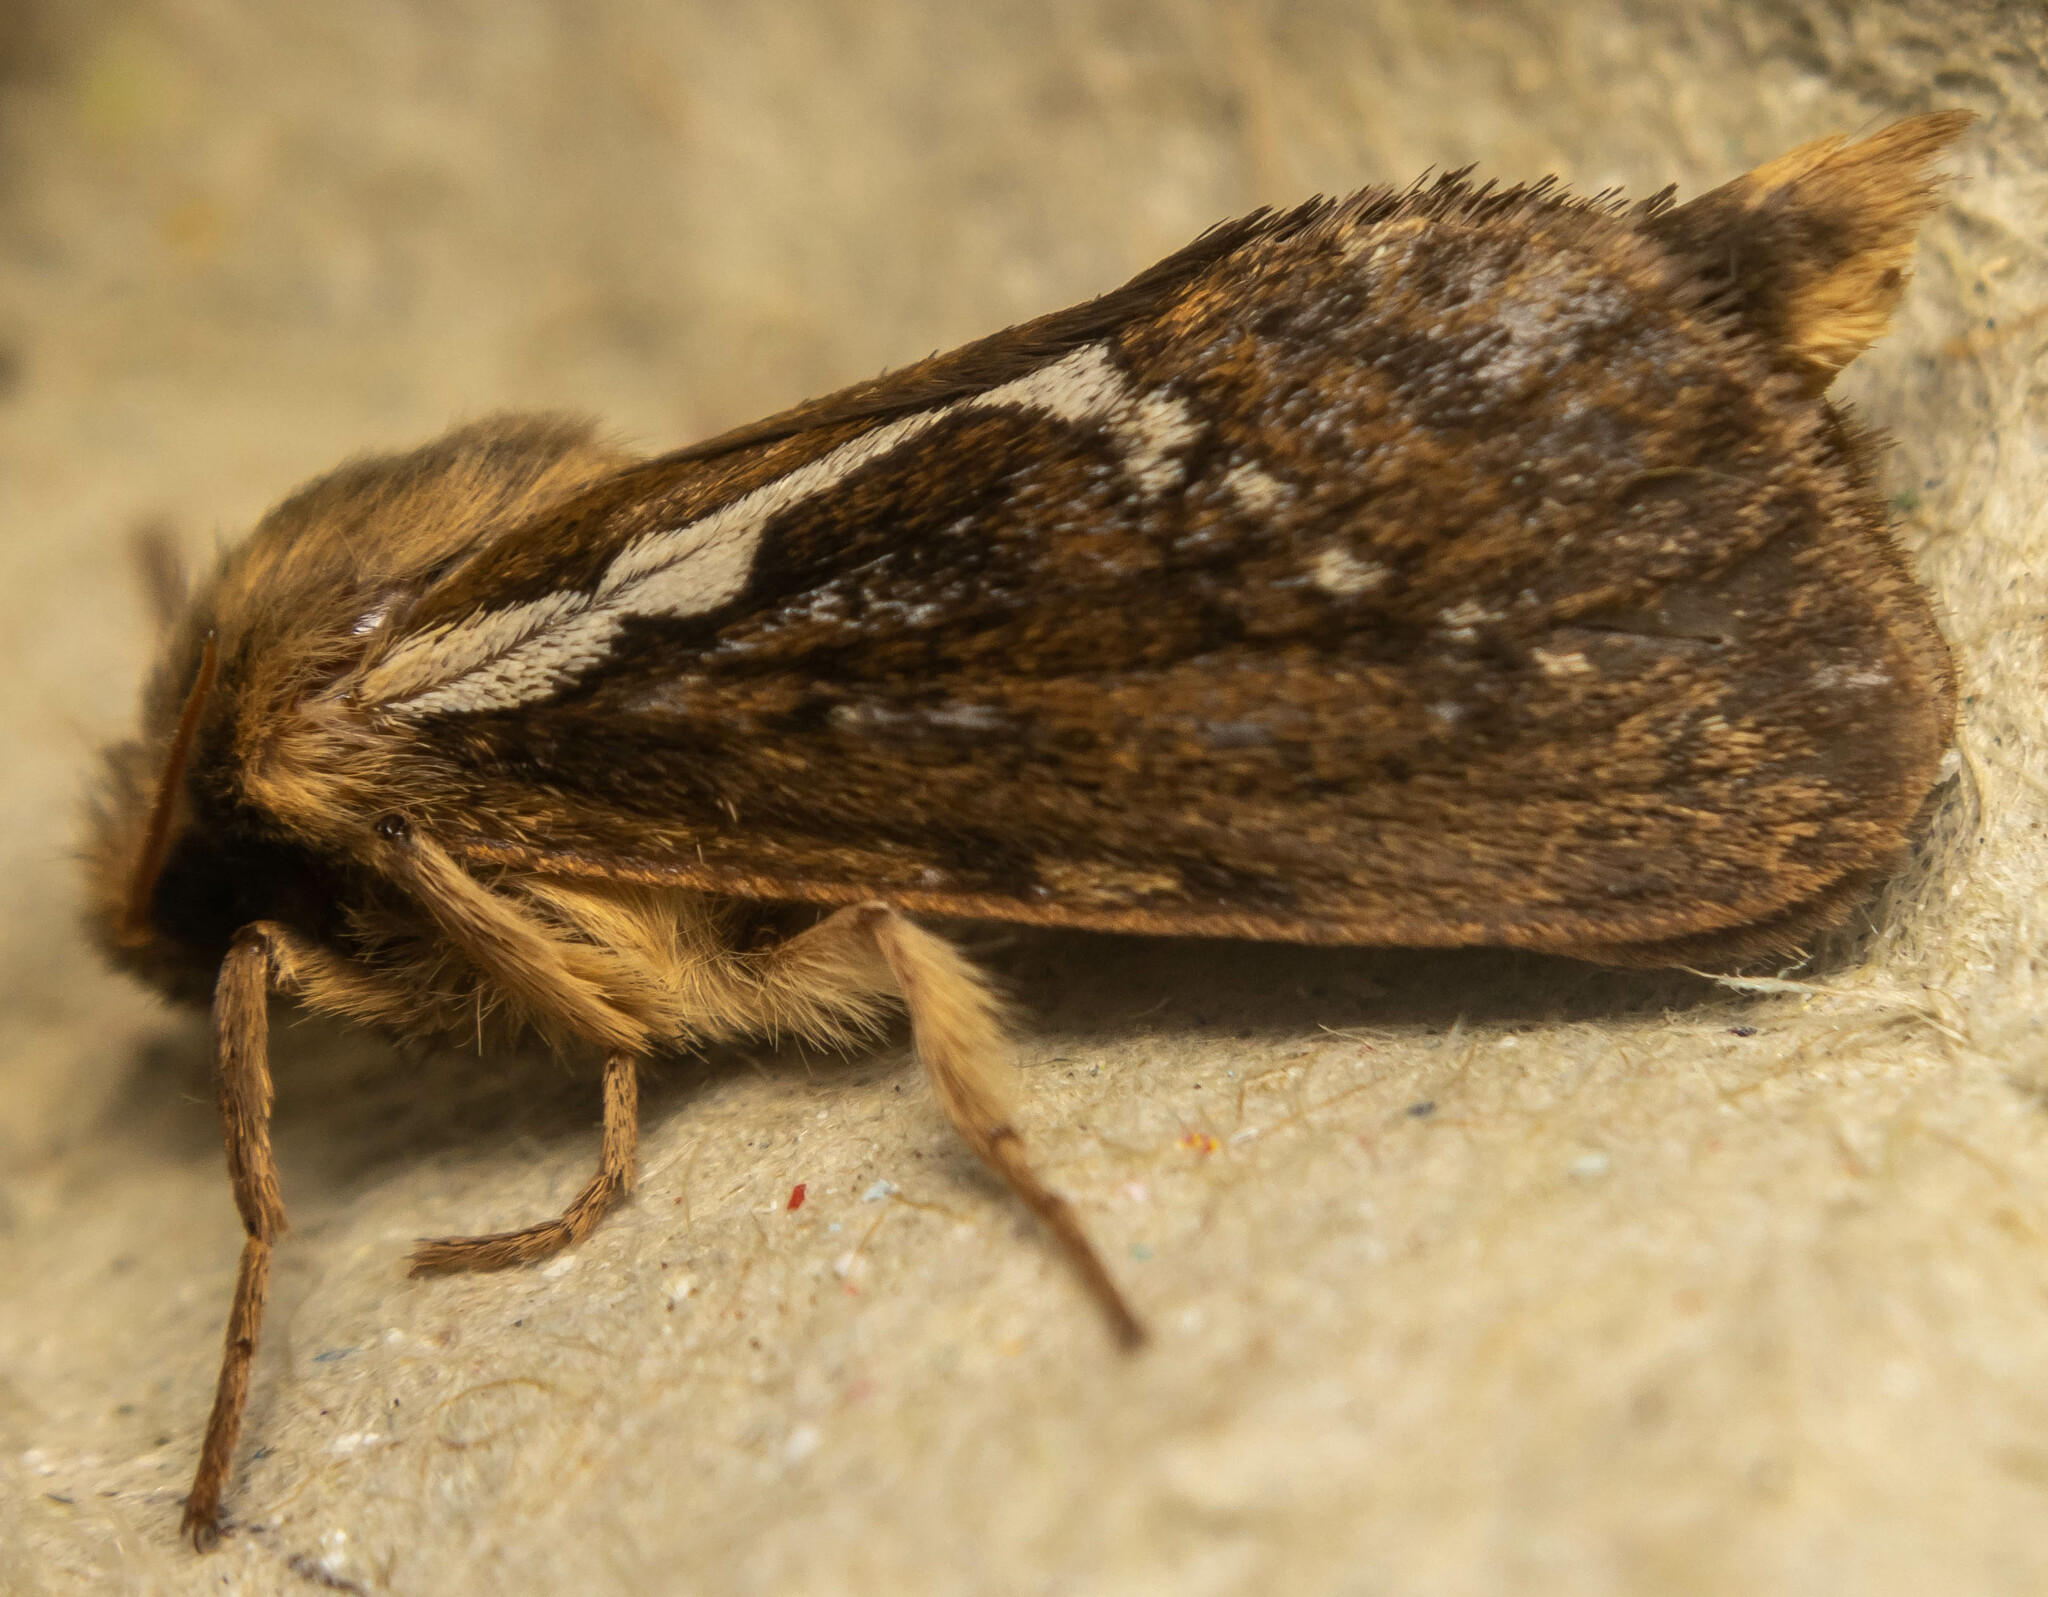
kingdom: Animalia
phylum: Arthropoda
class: Insecta
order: Lepidoptera
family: Hepialidae
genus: Korscheltellus
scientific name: Korscheltellus lupulina
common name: Common swift
